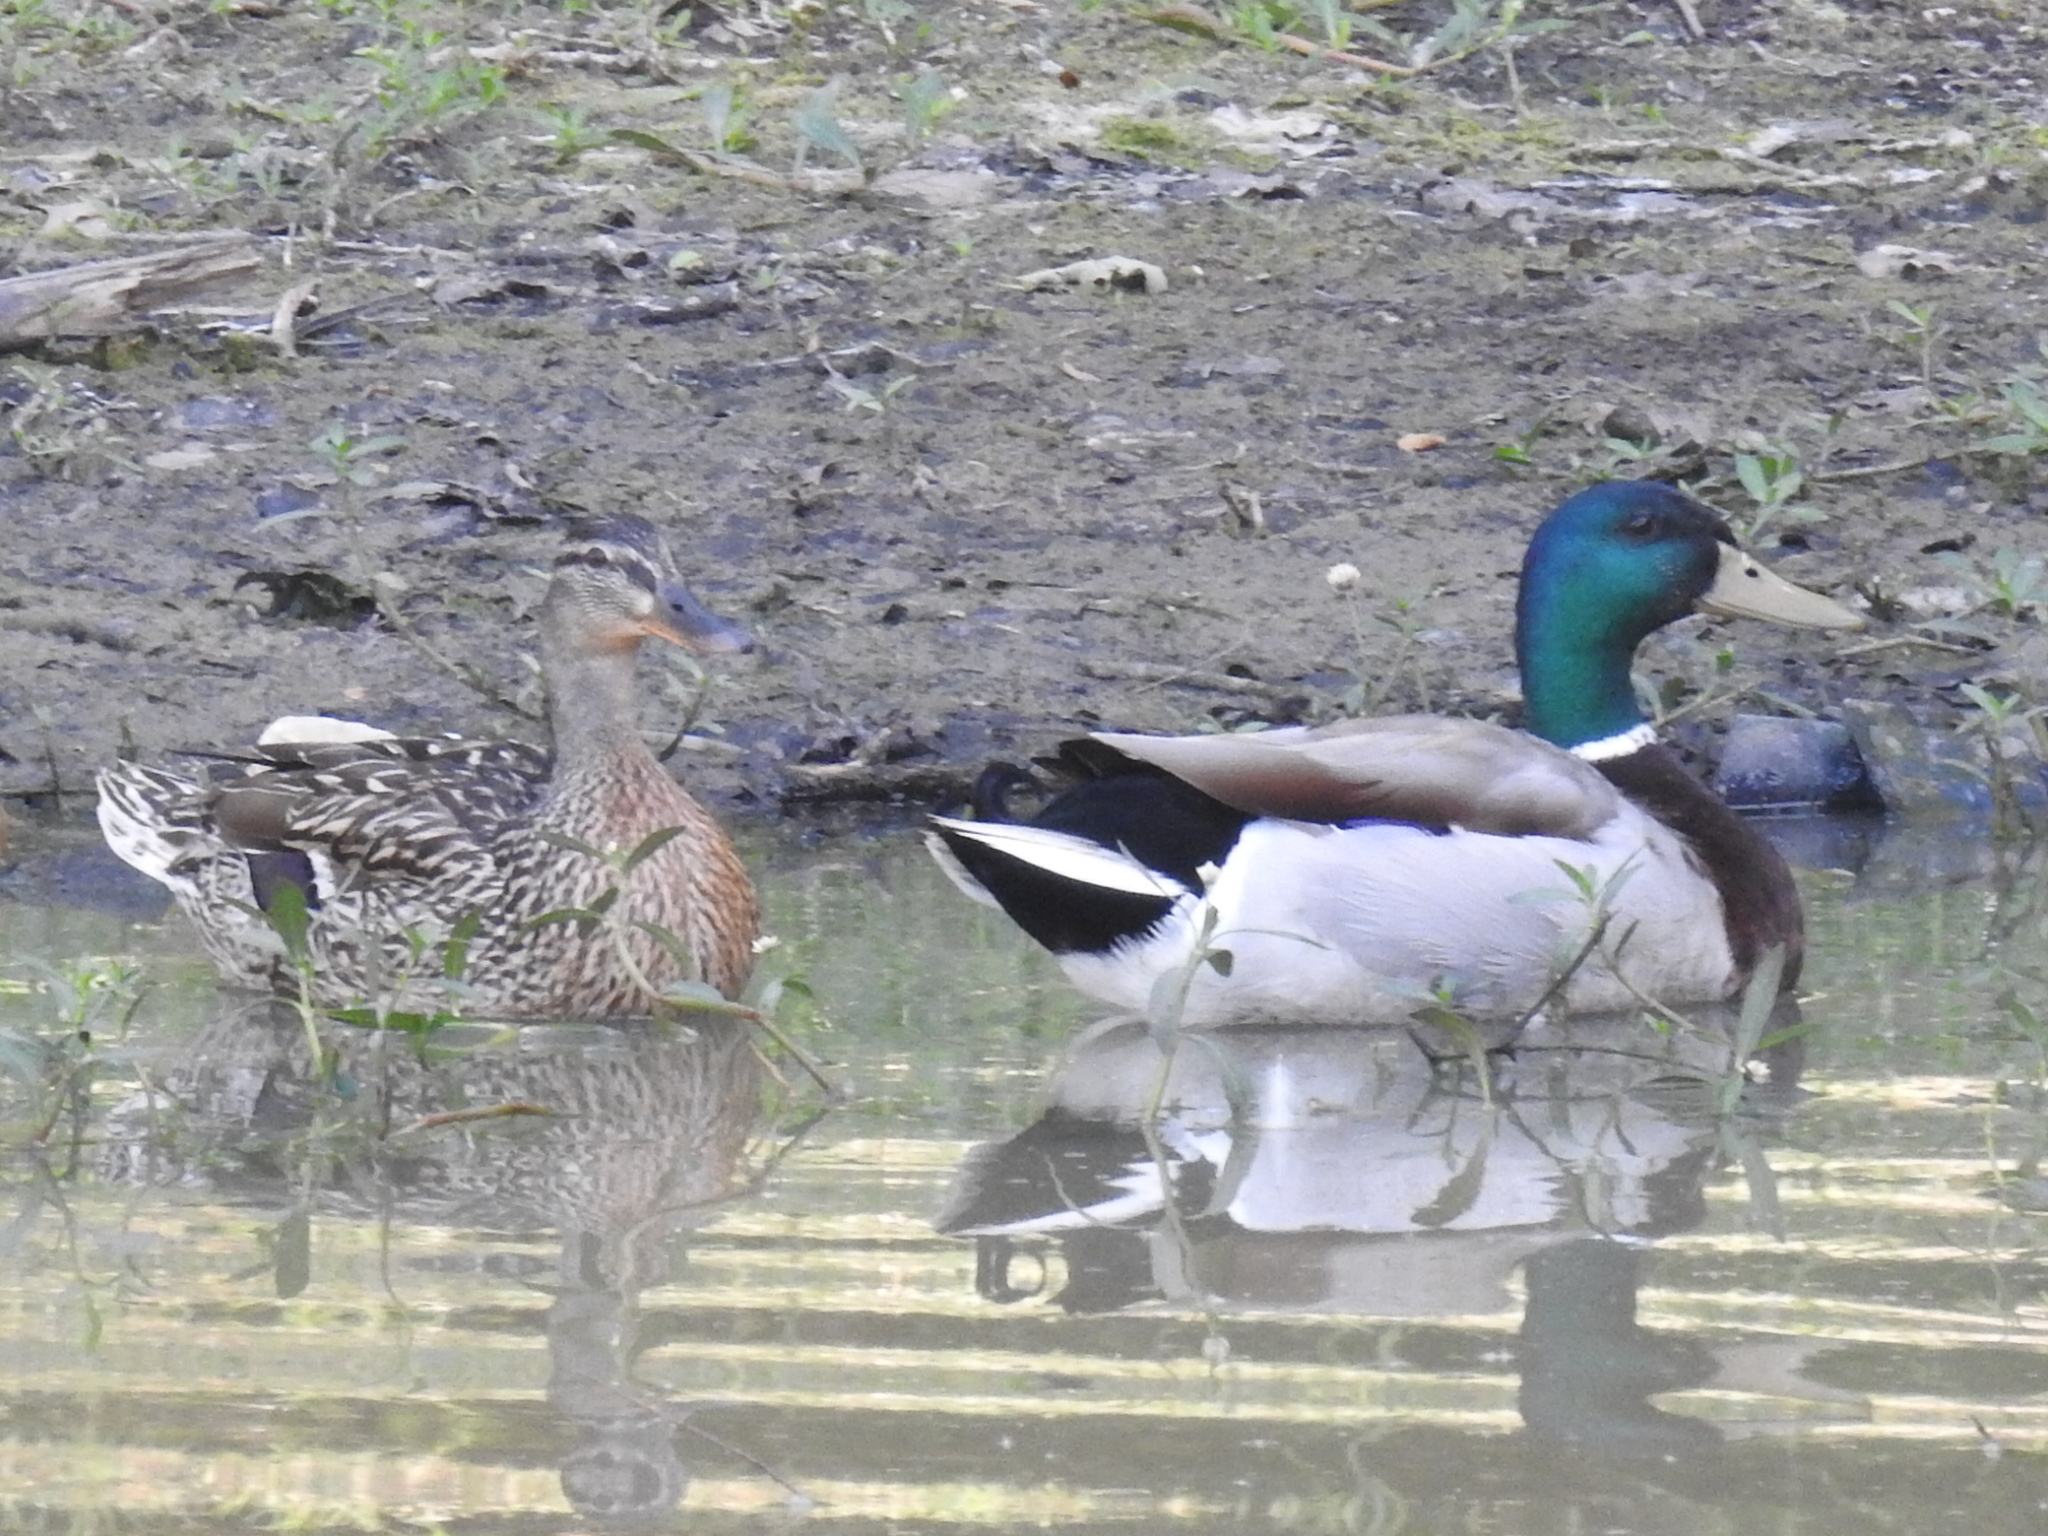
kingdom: Animalia
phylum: Chordata
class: Aves
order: Anseriformes
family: Anatidae
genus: Anas
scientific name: Anas platyrhynchos
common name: Mallard
